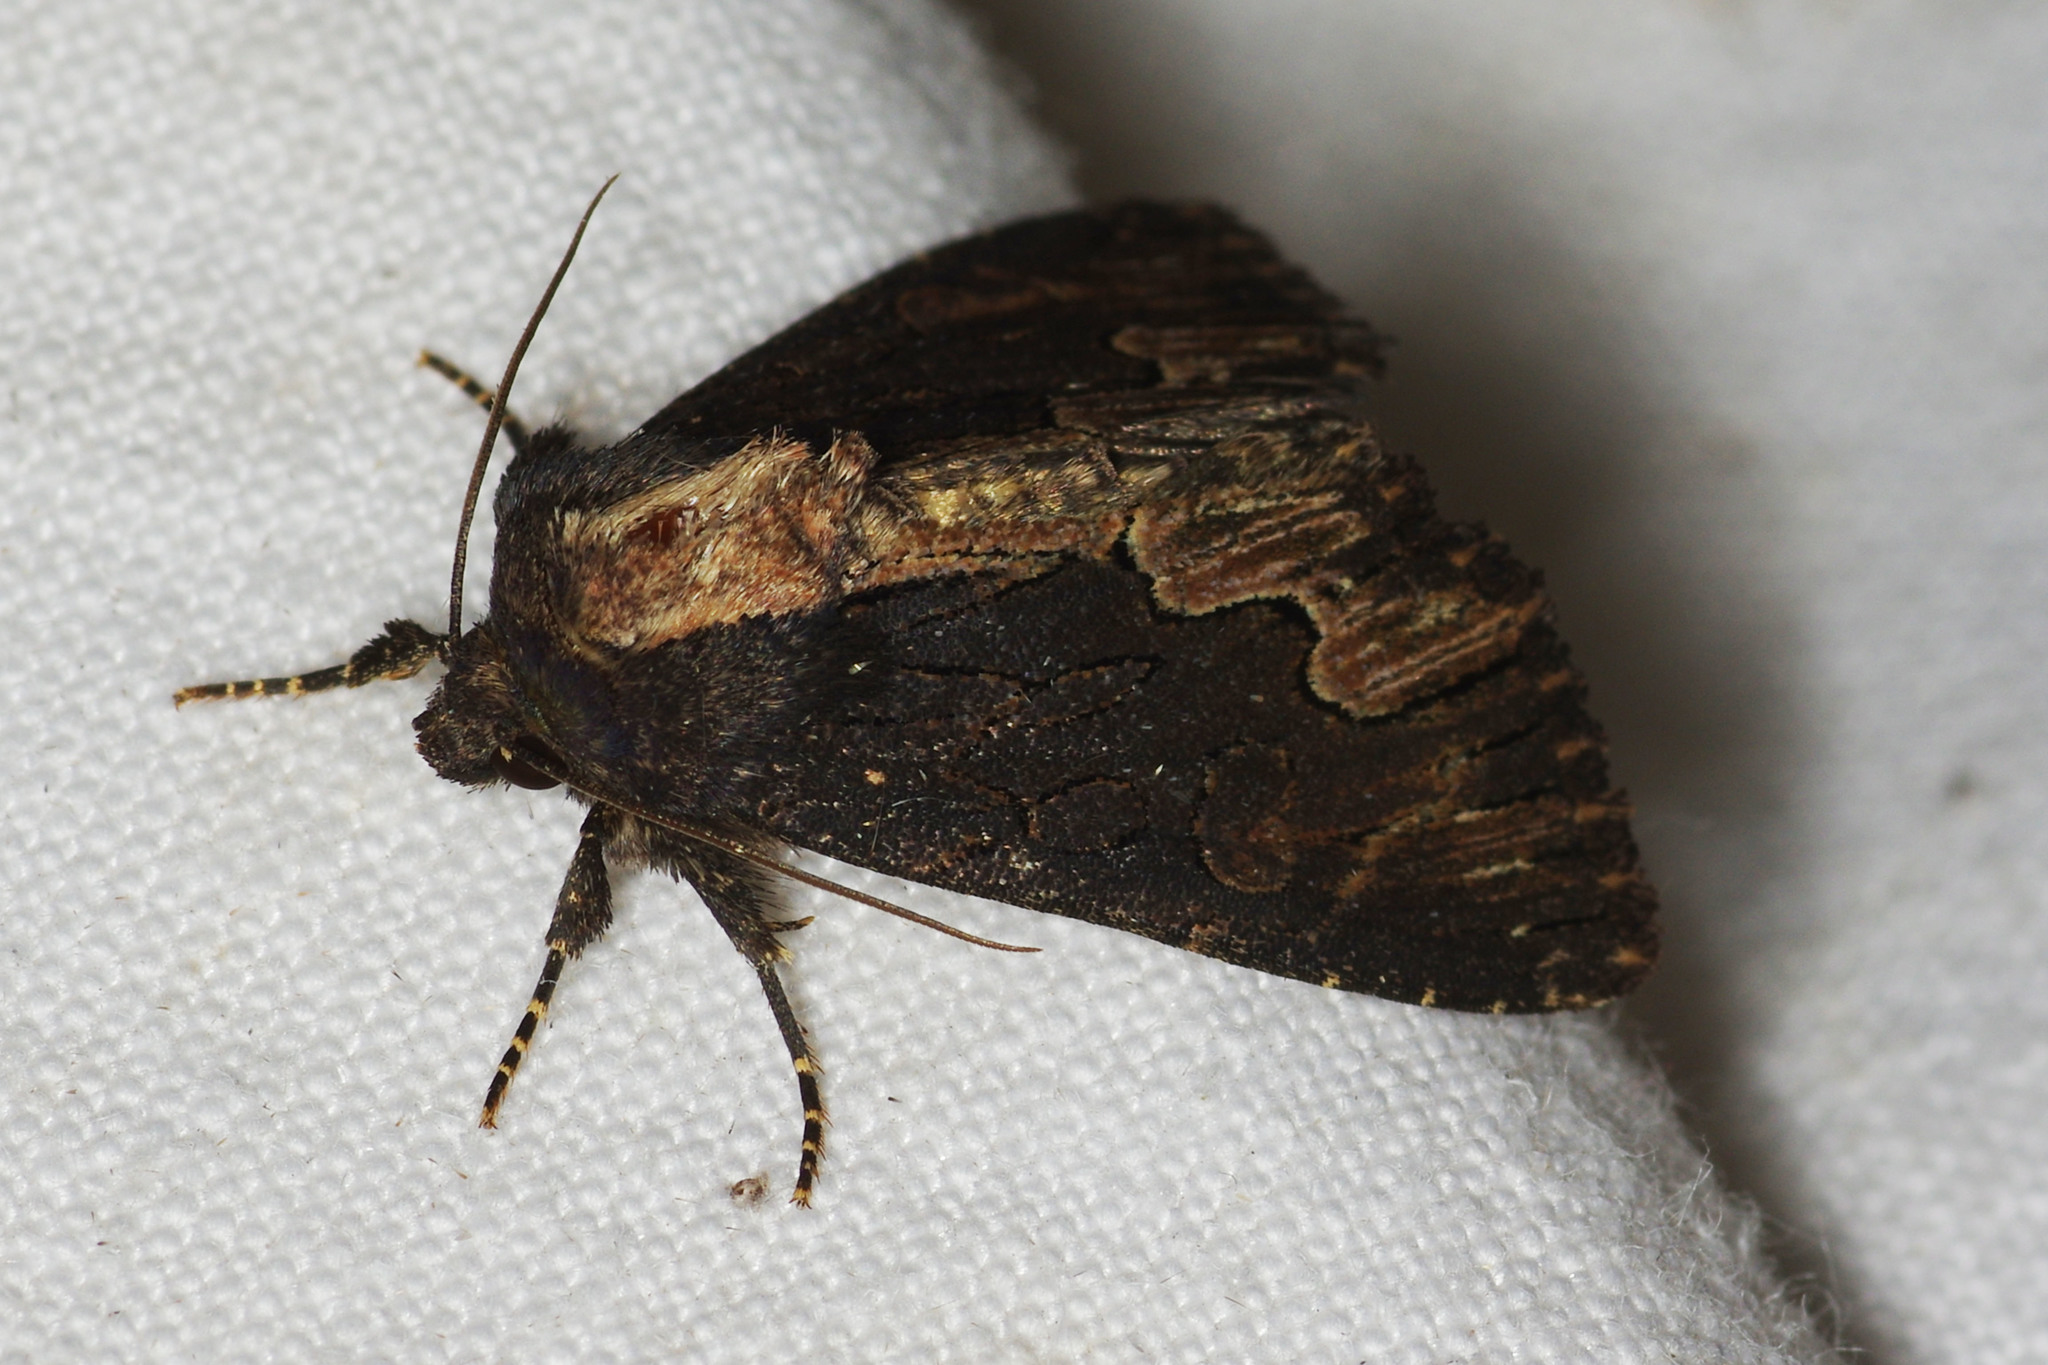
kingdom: Animalia
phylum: Arthropoda
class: Insecta
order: Lepidoptera
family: Noctuidae
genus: Dypterygia
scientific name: Dypterygia scabriuscula
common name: Bird's wing
